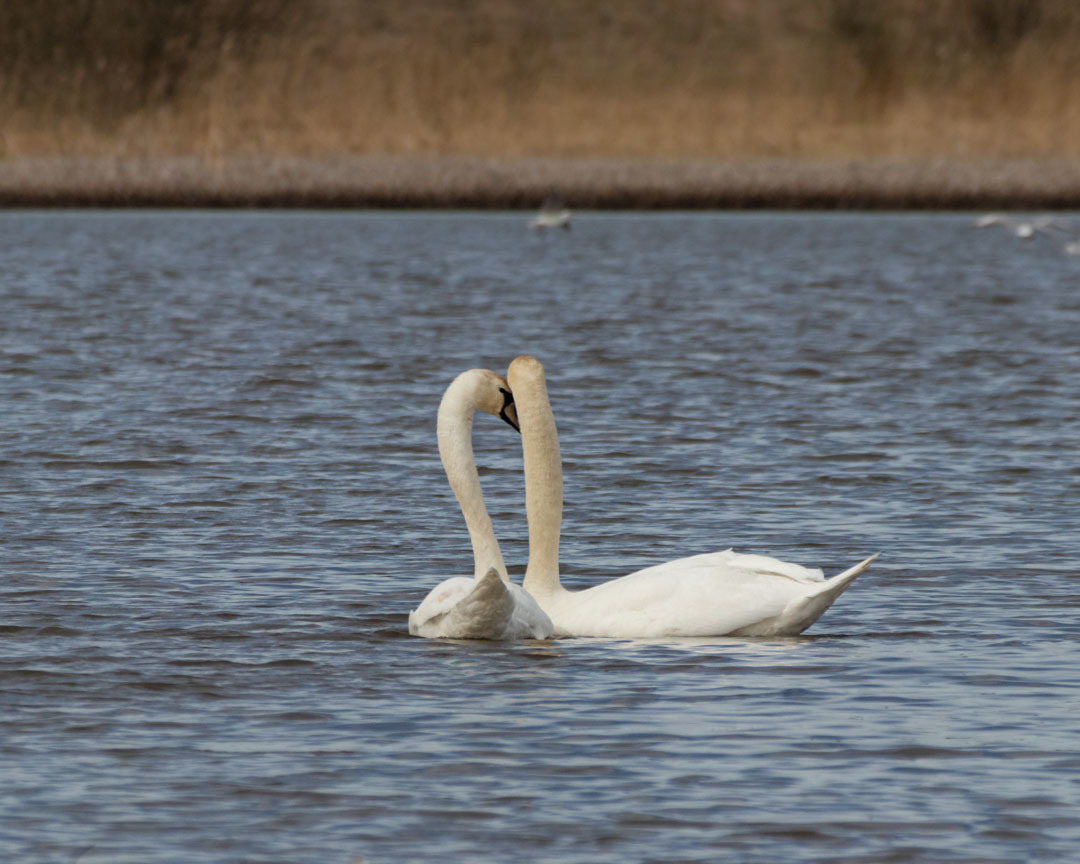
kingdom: Animalia
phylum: Chordata
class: Aves
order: Anseriformes
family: Anatidae
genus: Cygnus
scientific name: Cygnus olor
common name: Mute swan
